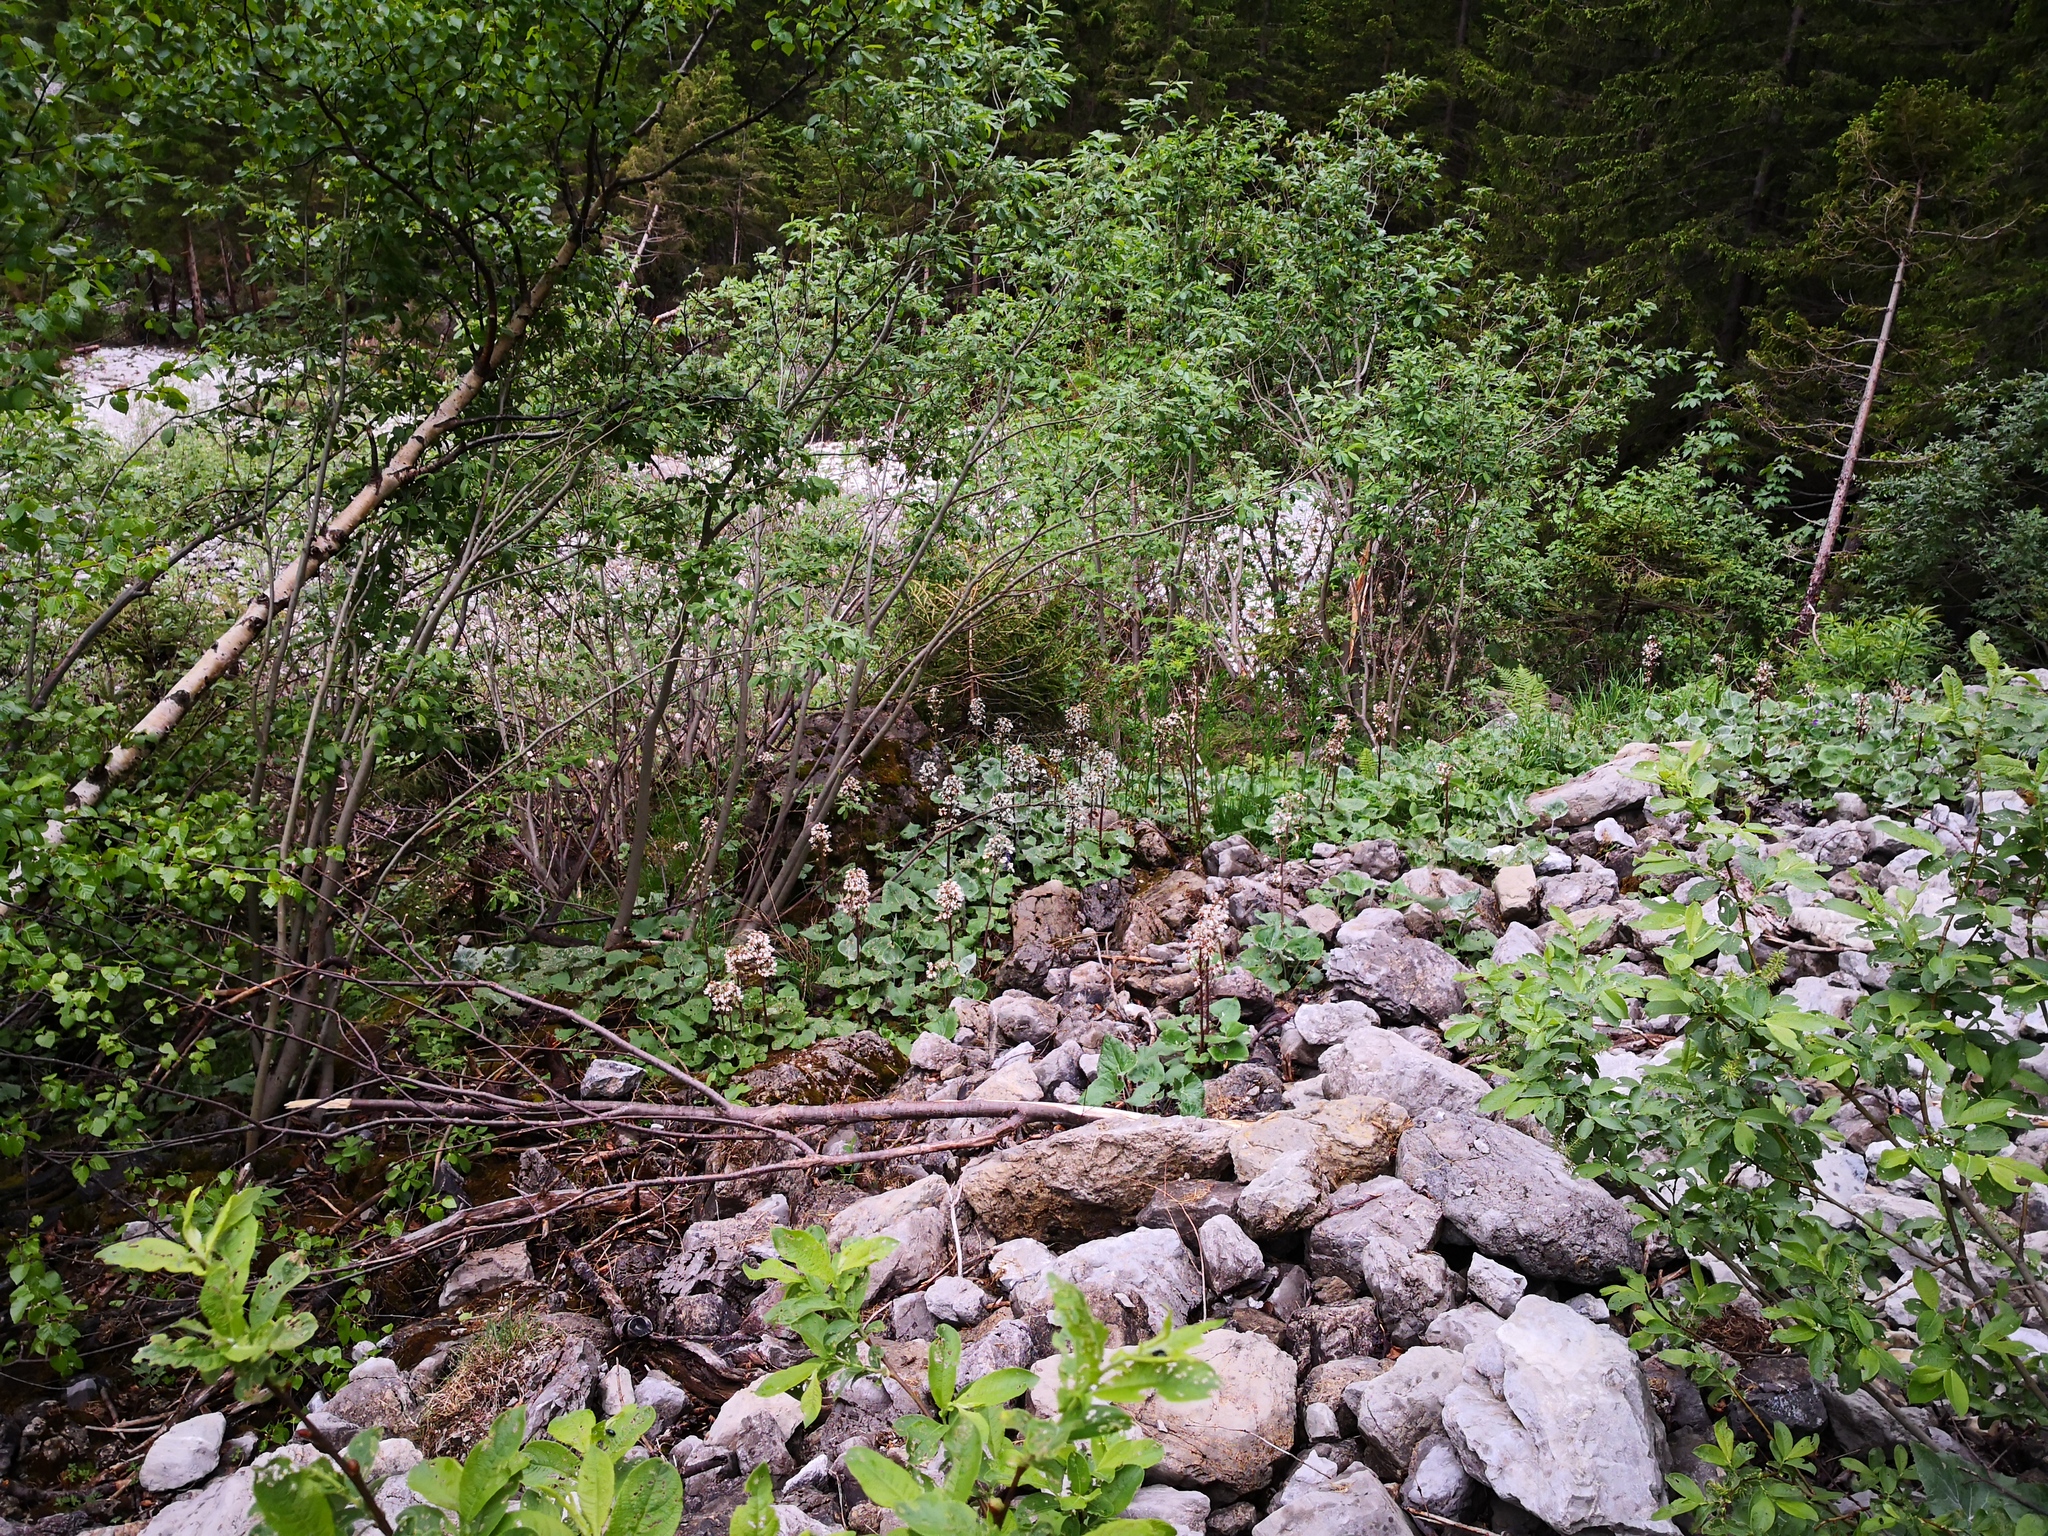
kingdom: Plantae
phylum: Tracheophyta
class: Magnoliopsida
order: Asterales
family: Asteraceae
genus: Petasites
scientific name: Petasites paradoxus
